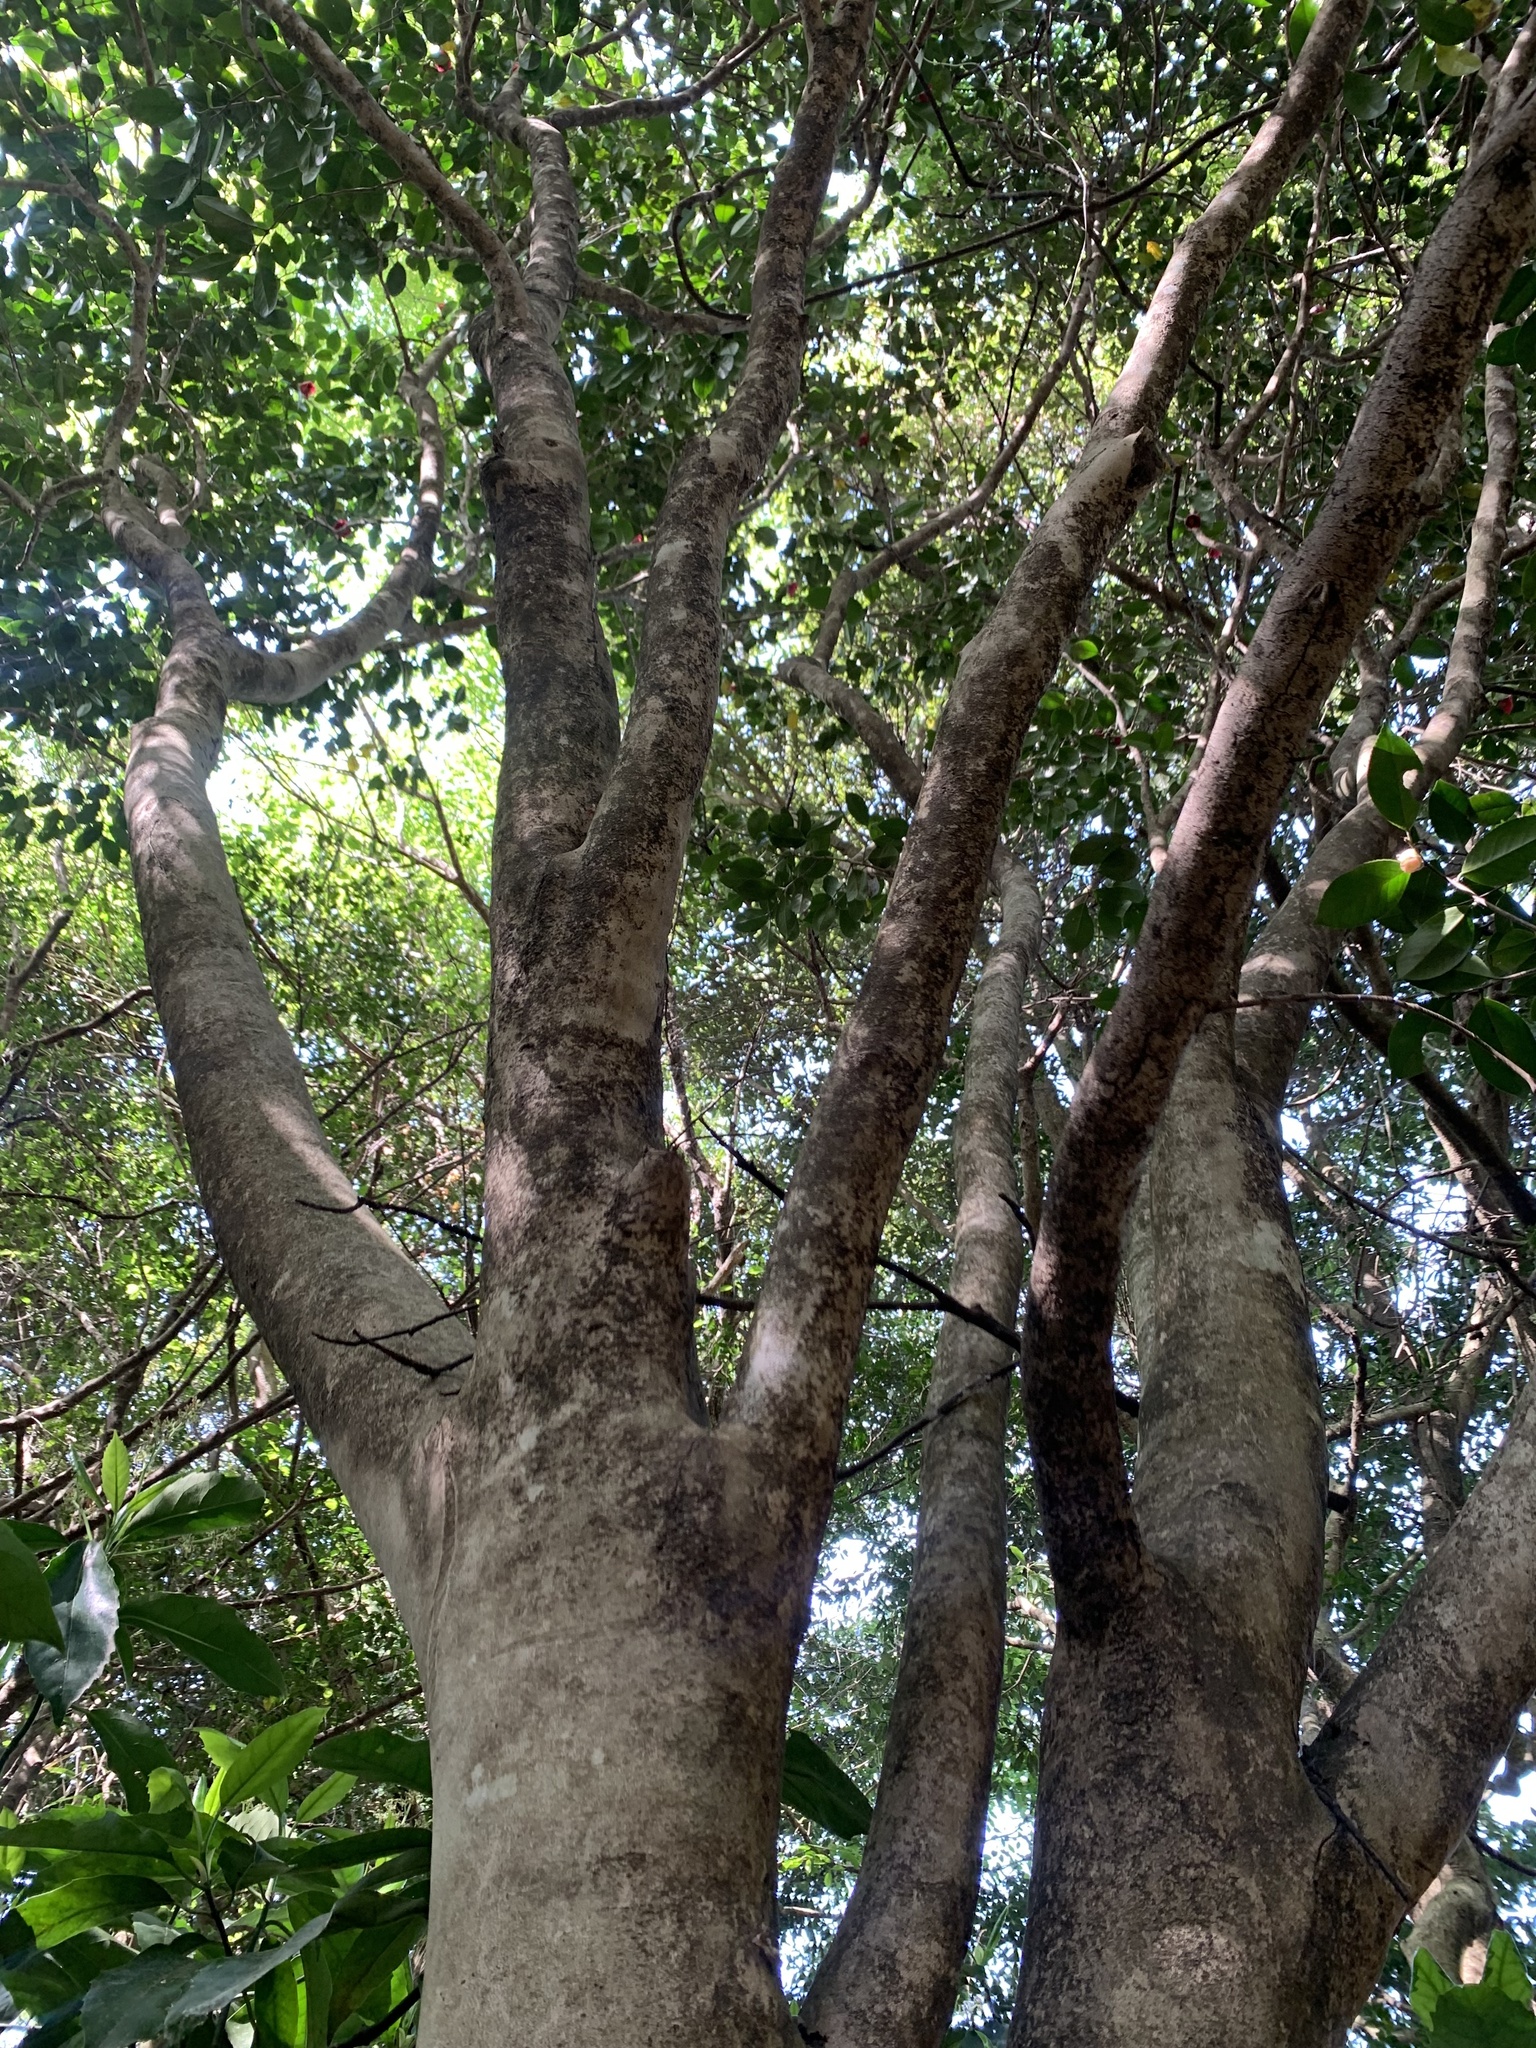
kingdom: Plantae
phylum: Tracheophyta
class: Magnoliopsida
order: Ericales
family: Theaceae
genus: Camellia
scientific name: Camellia japonica
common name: Camellia
